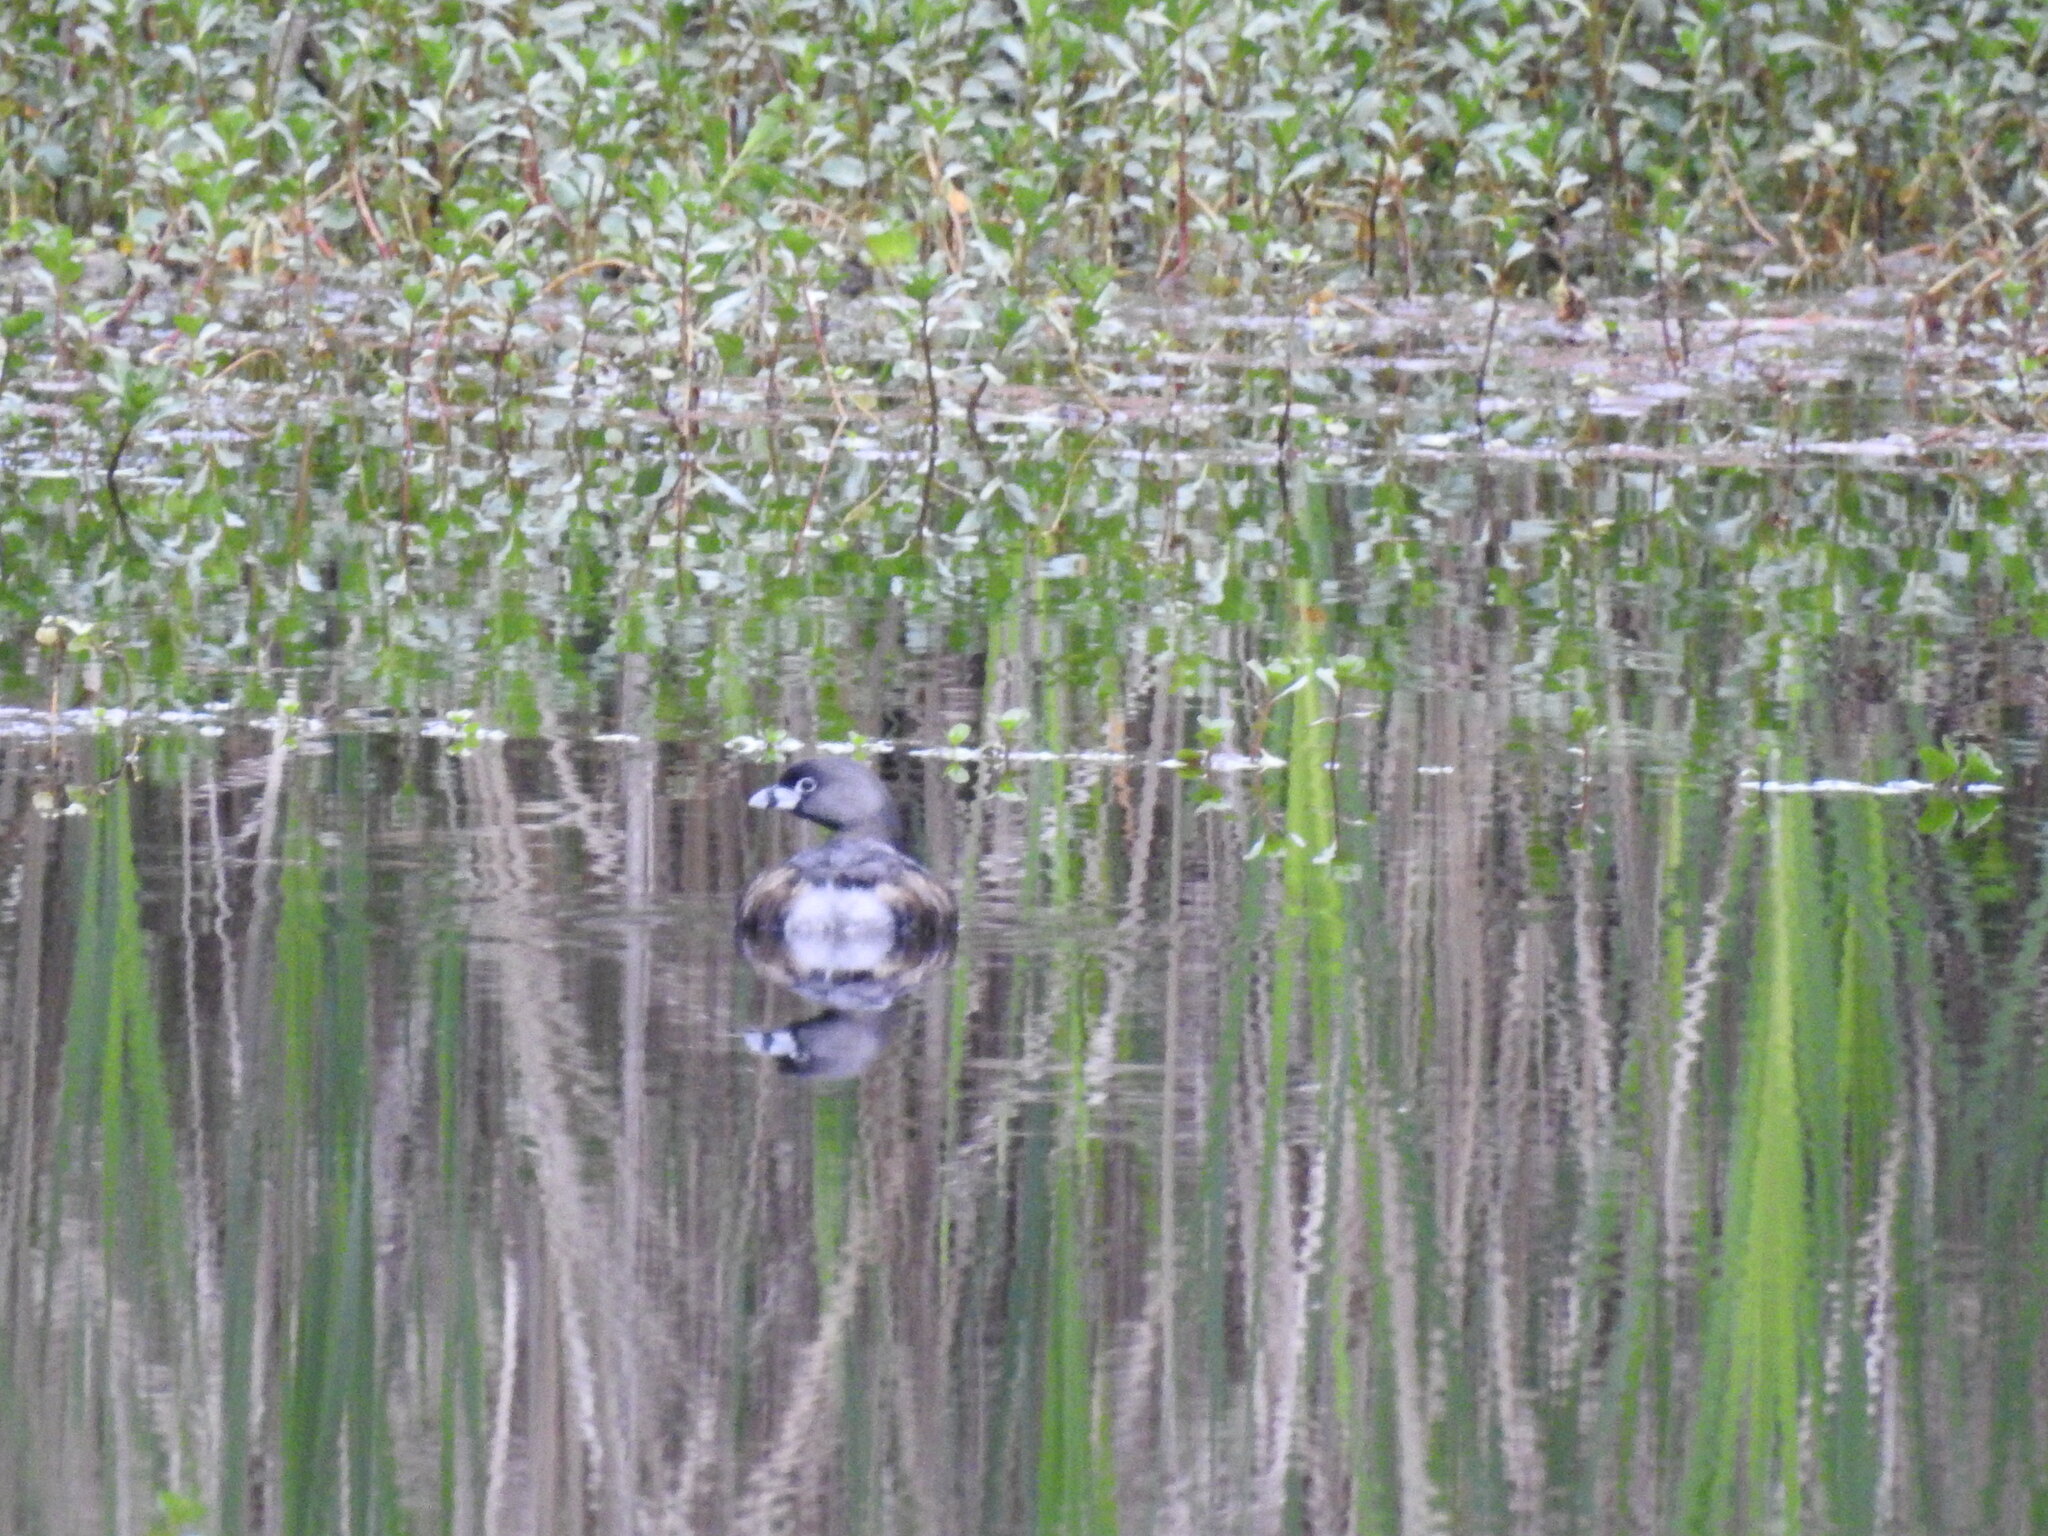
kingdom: Animalia
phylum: Chordata
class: Aves
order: Podicipediformes
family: Podicipedidae
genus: Podilymbus
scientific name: Podilymbus podiceps
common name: Pied-billed grebe
